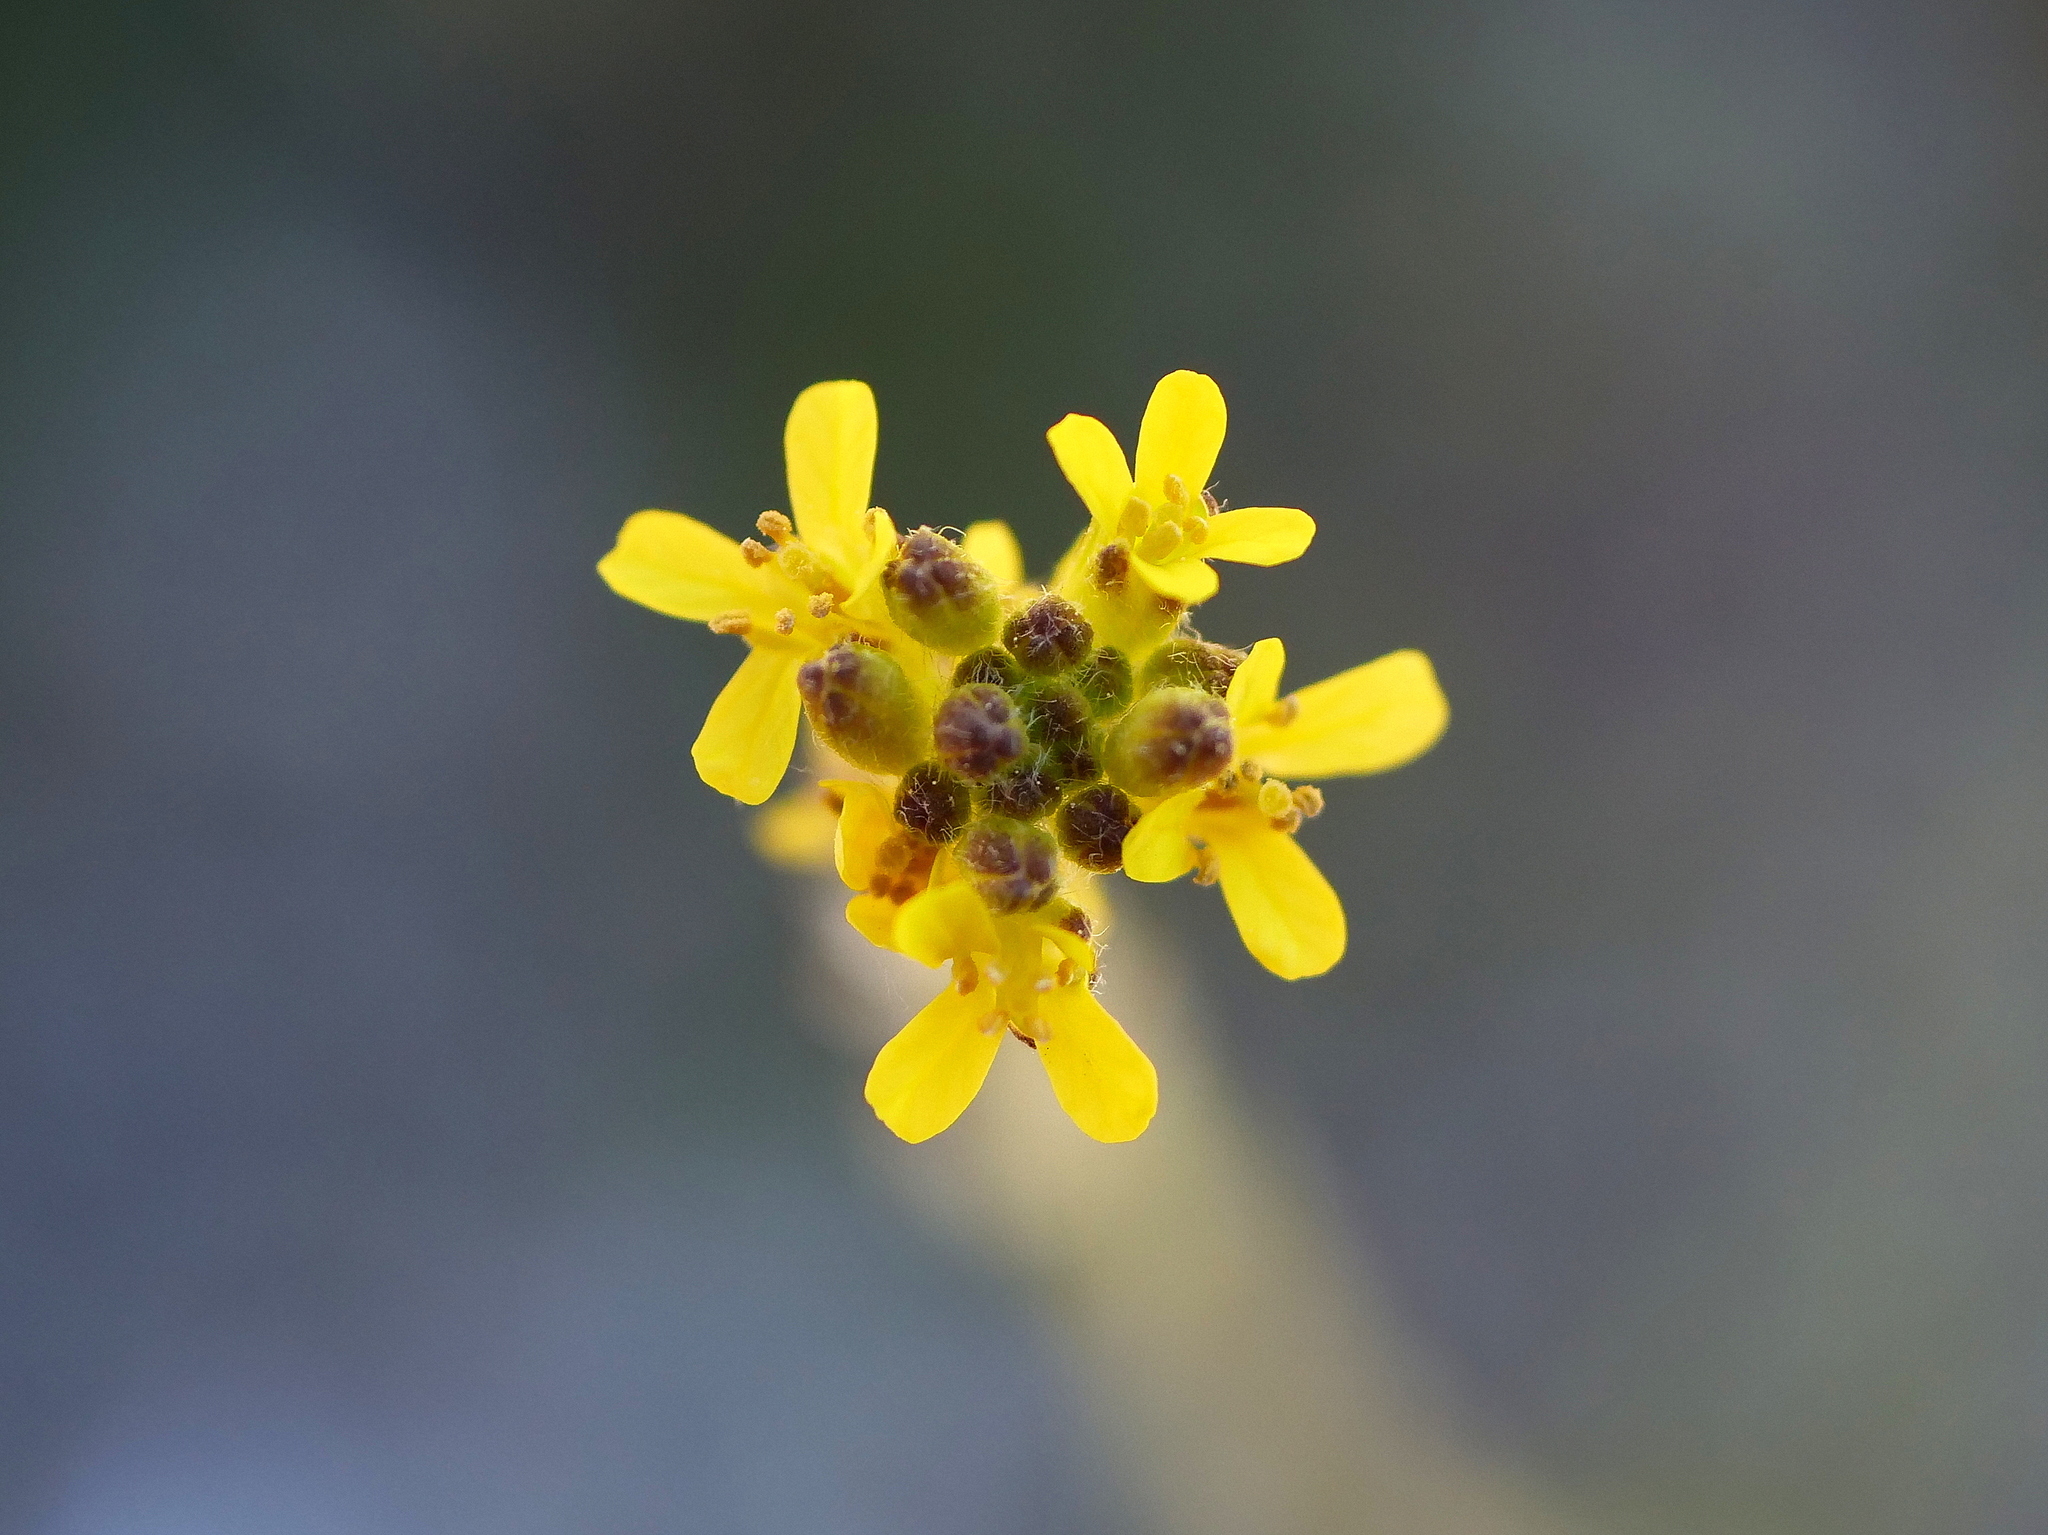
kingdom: Plantae
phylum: Tracheophyta
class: Magnoliopsida
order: Brassicales
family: Brassicaceae
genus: Sisymbrium
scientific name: Sisymbrium officinale
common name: Hedge mustard
